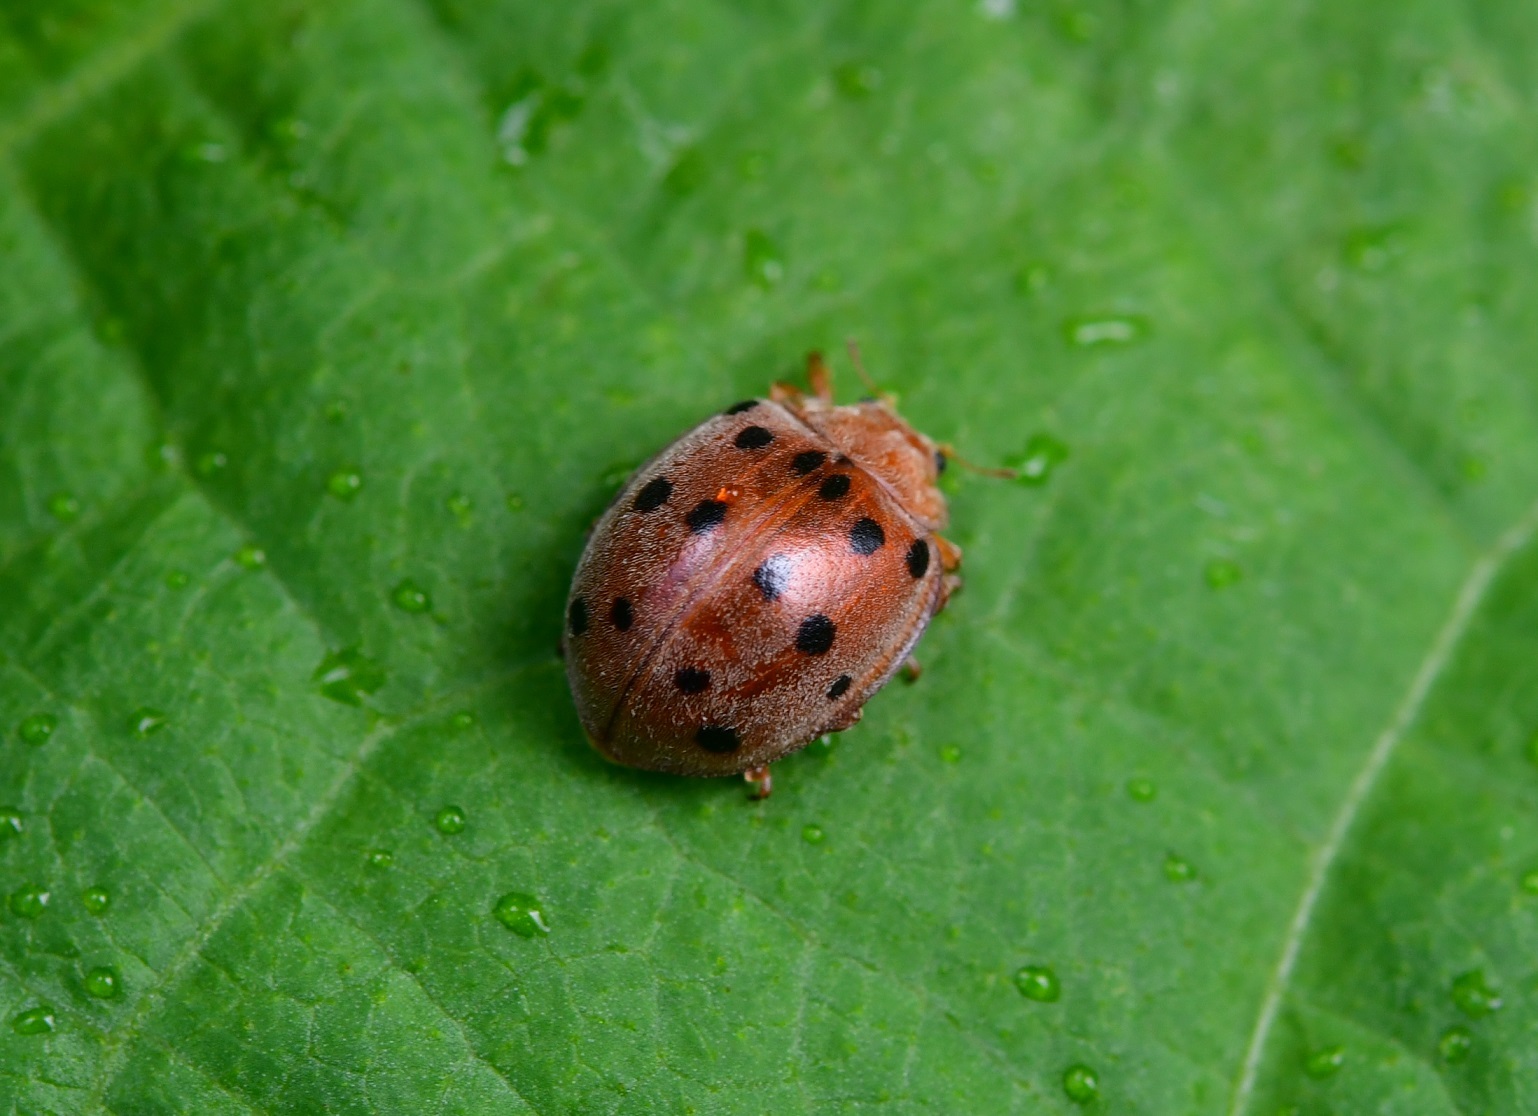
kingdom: Animalia
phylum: Arthropoda
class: Insecta
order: Coleoptera
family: Coccinellidae
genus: Epilachna
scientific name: Epilachna varivestis
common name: Ladybird beetle
